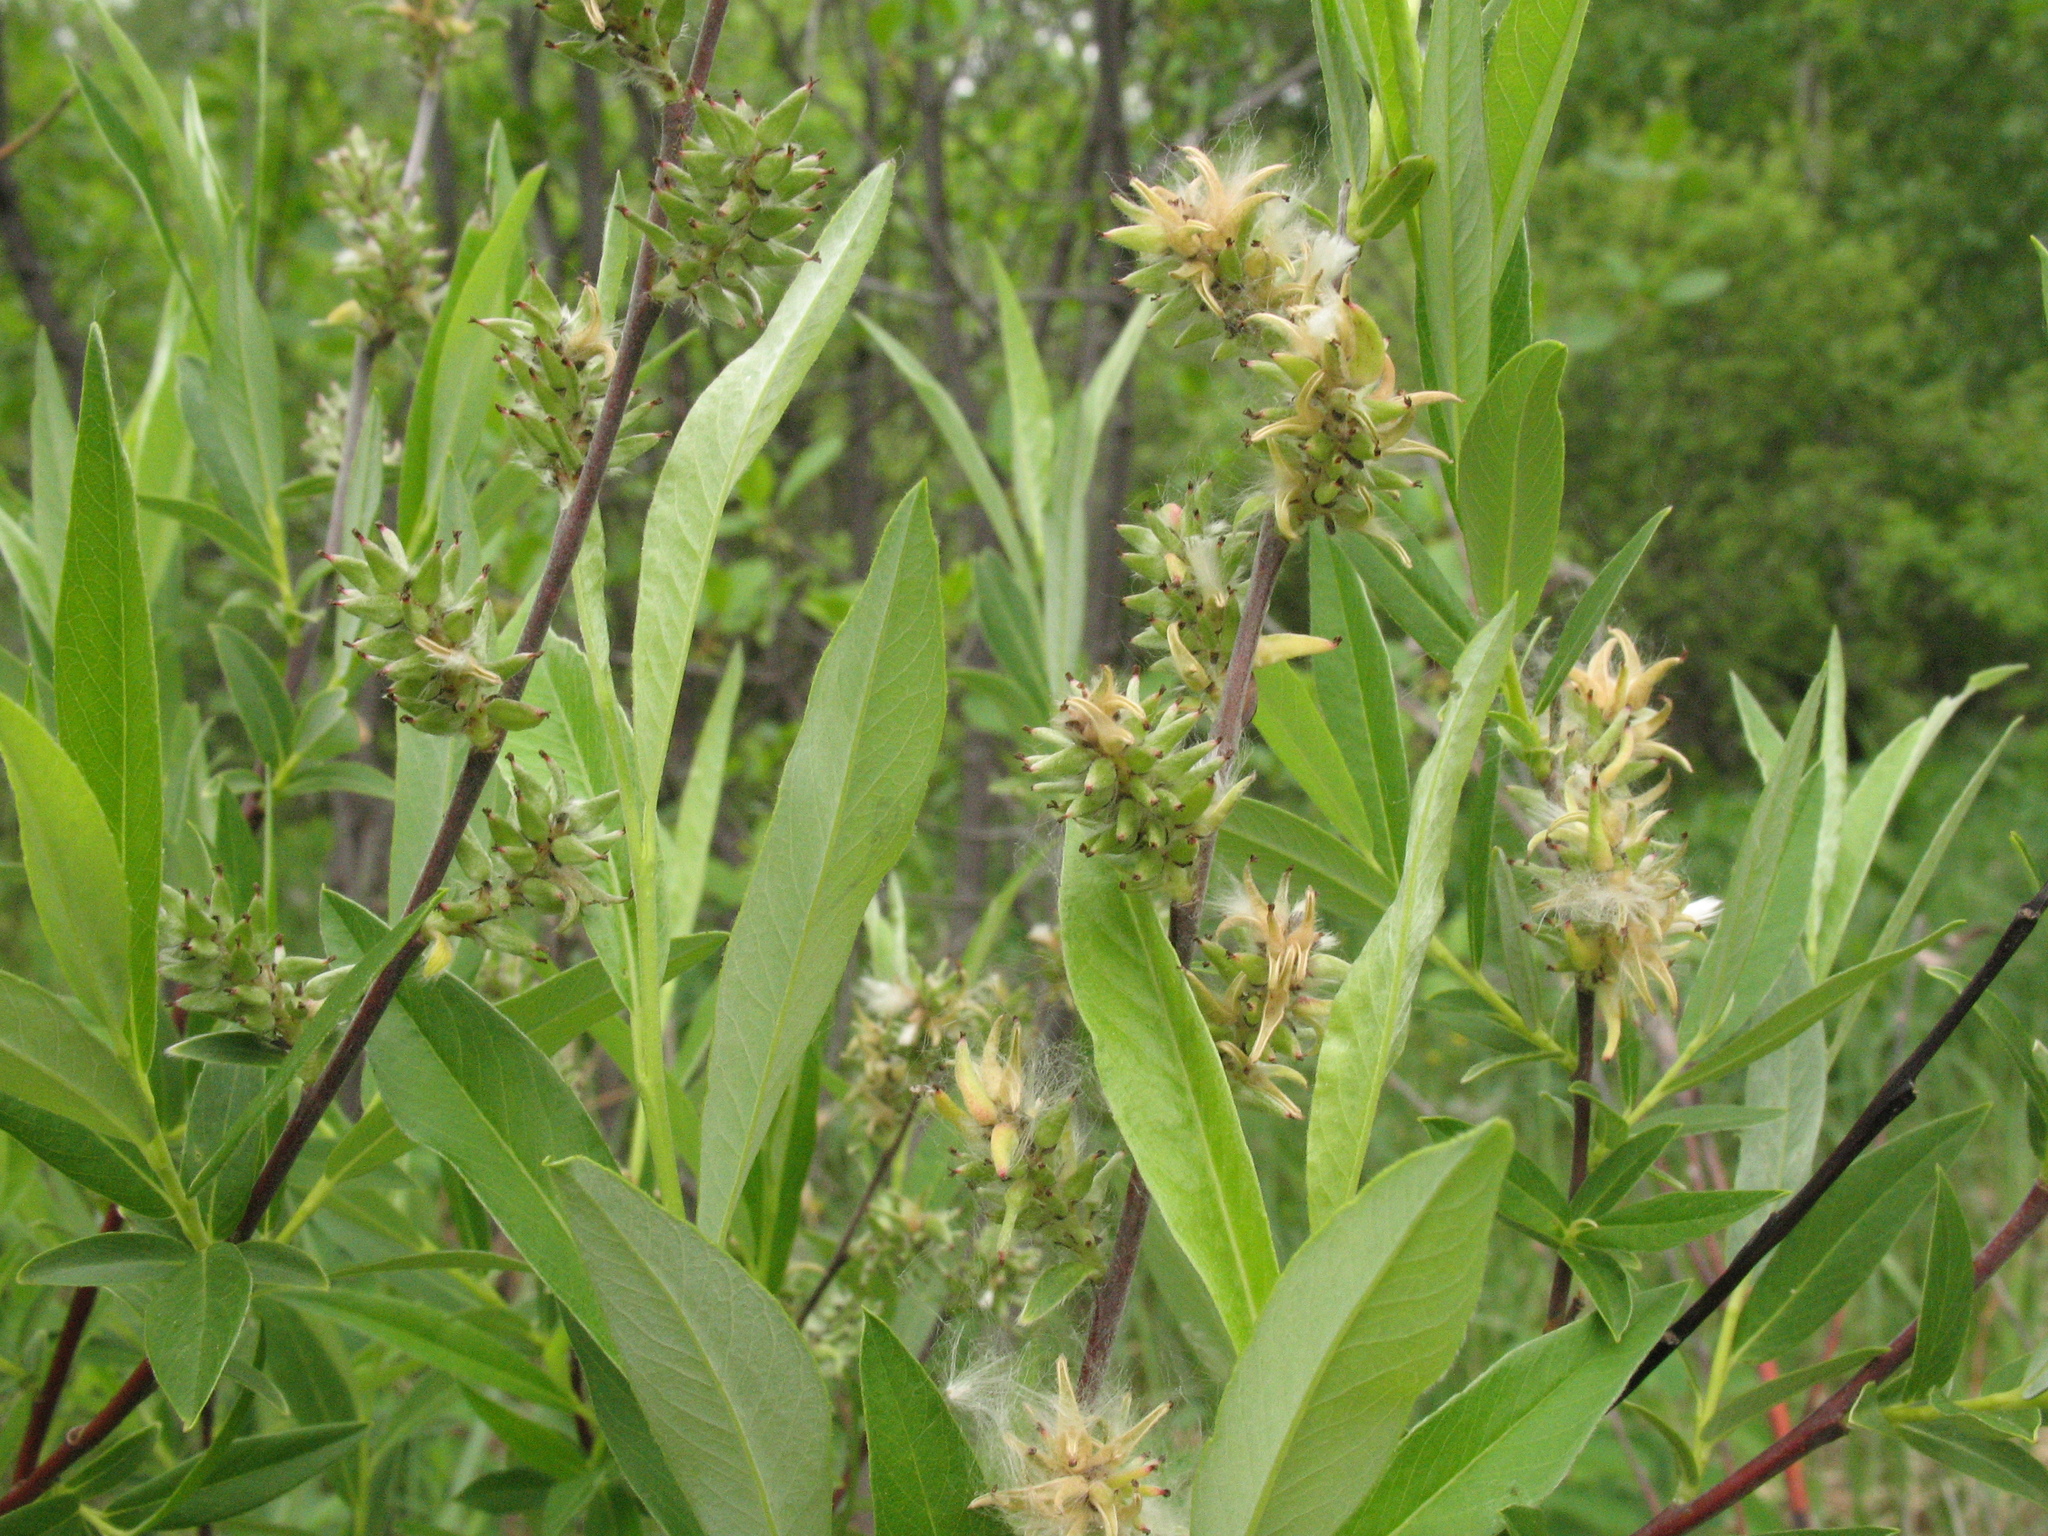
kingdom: Plantae
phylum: Tracheophyta
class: Magnoliopsida
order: Malpighiales
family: Salicaceae
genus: Salix
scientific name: Salix rosmarinifolia
